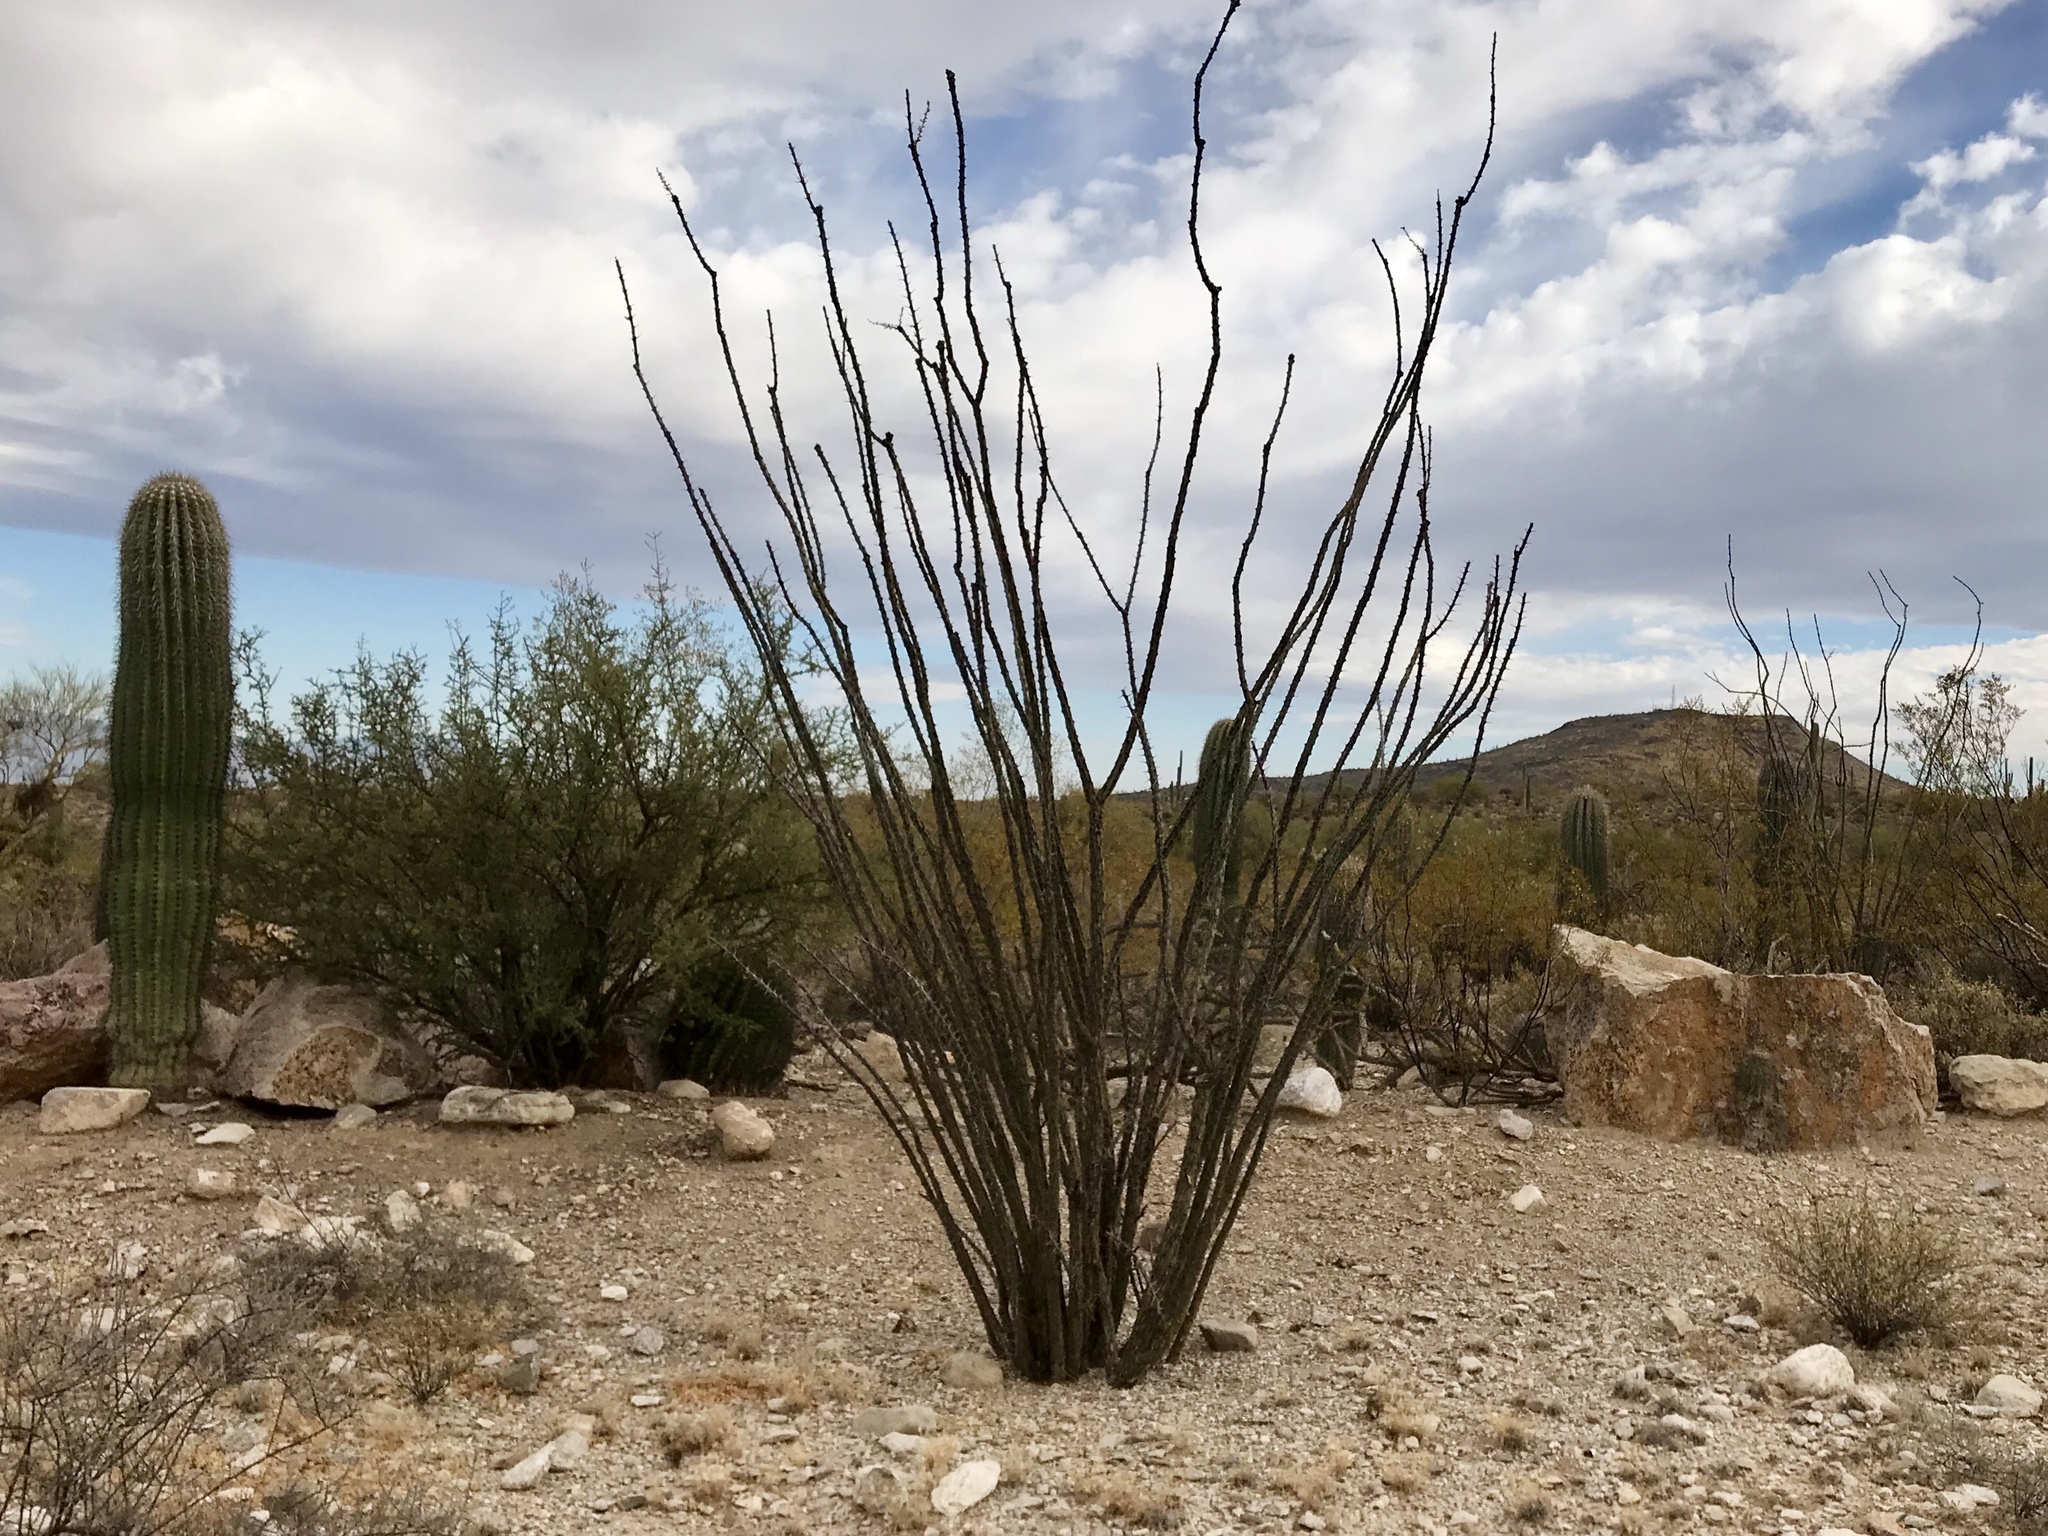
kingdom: Plantae
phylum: Tracheophyta
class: Magnoliopsida
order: Ericales
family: Fouquieriaceae
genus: Fouquieria
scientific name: Fouquieria splendens
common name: Vine-cactus
